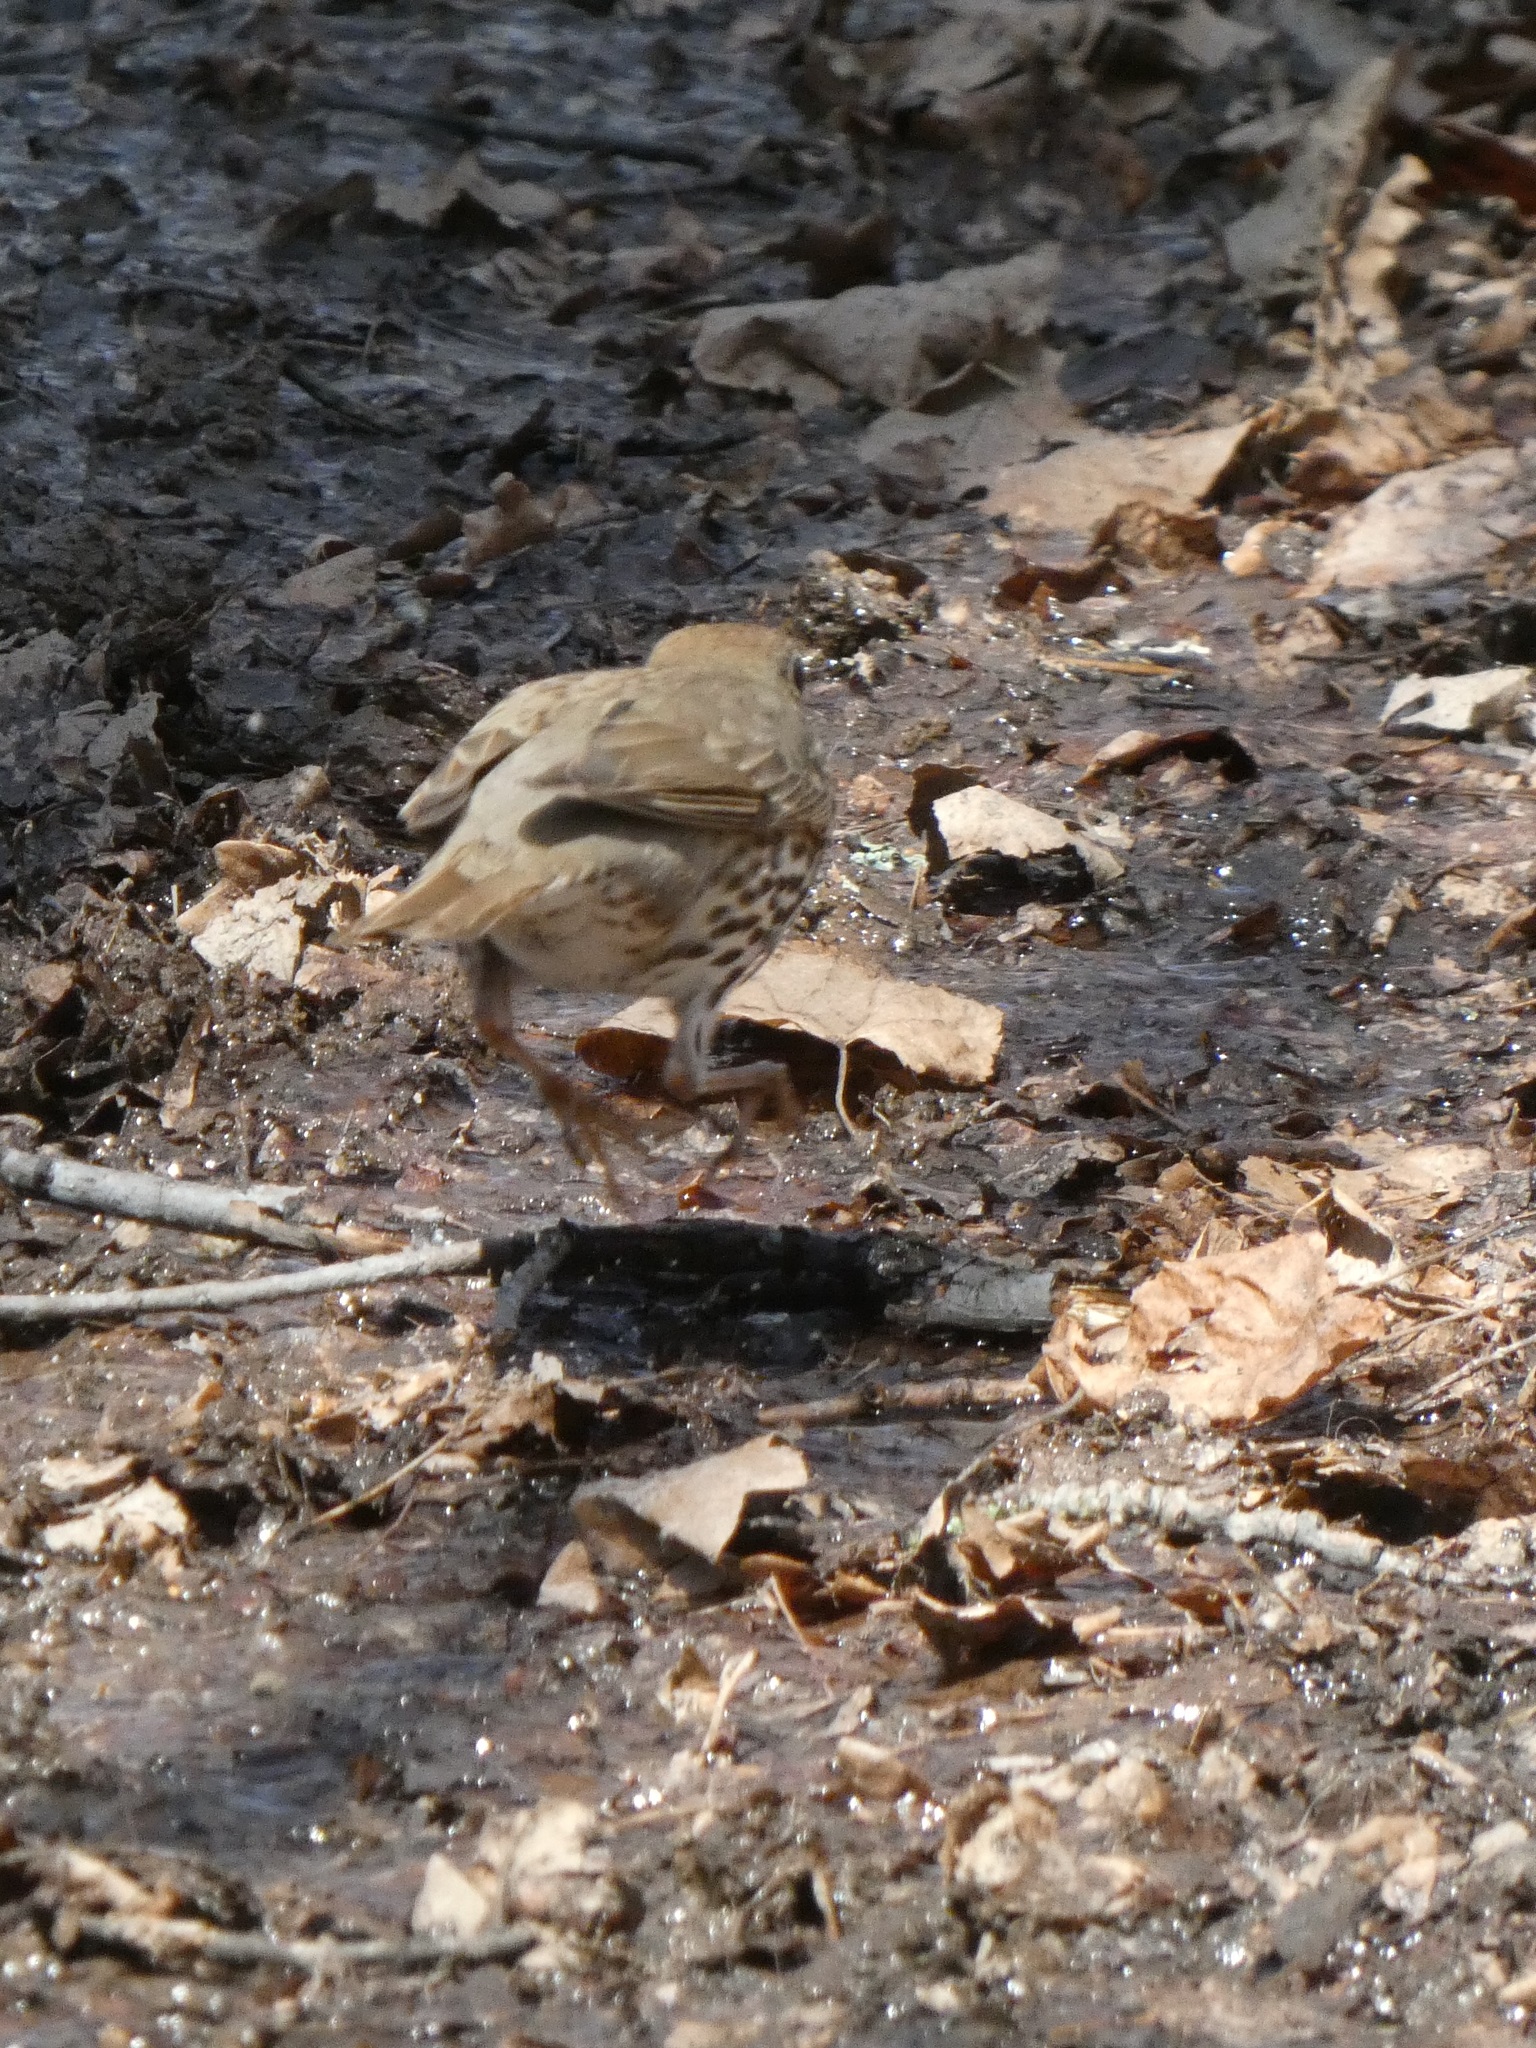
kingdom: Animalia
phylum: Chordata
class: Aves
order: Passeriformes
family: Turdidae
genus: Turdus
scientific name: Turdus philomelos
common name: Song thrush
